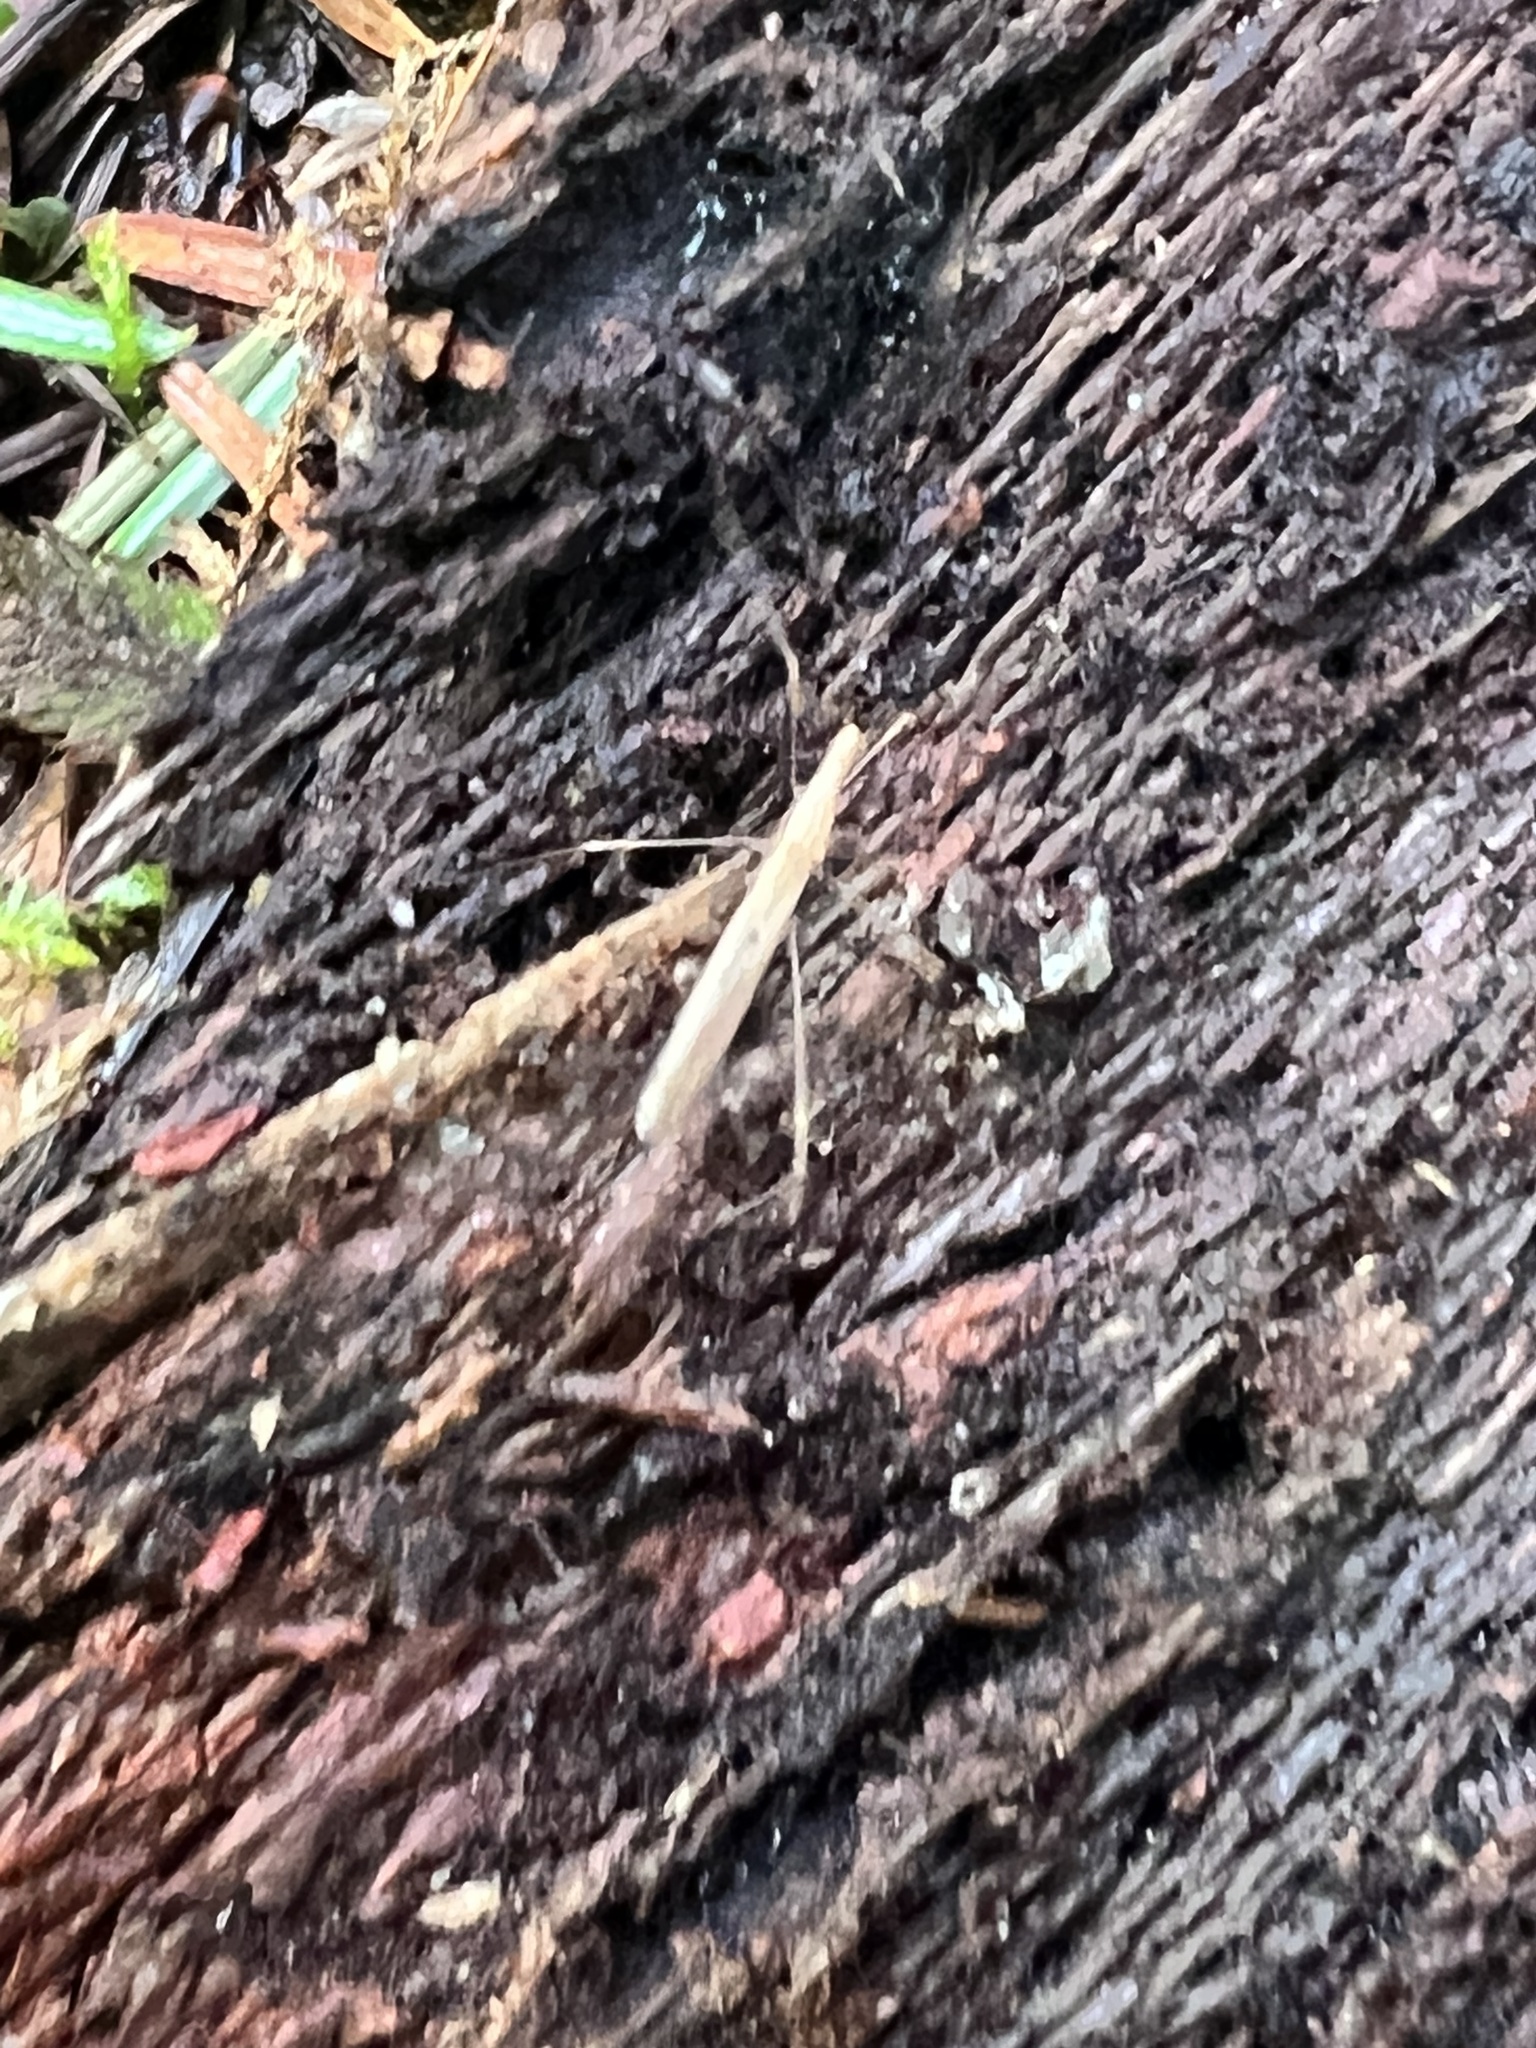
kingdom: Animalia
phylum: Arthropoda
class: Insecta
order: Hemiptera
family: Berytidae
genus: Neoneides
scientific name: Neoneides muticus
